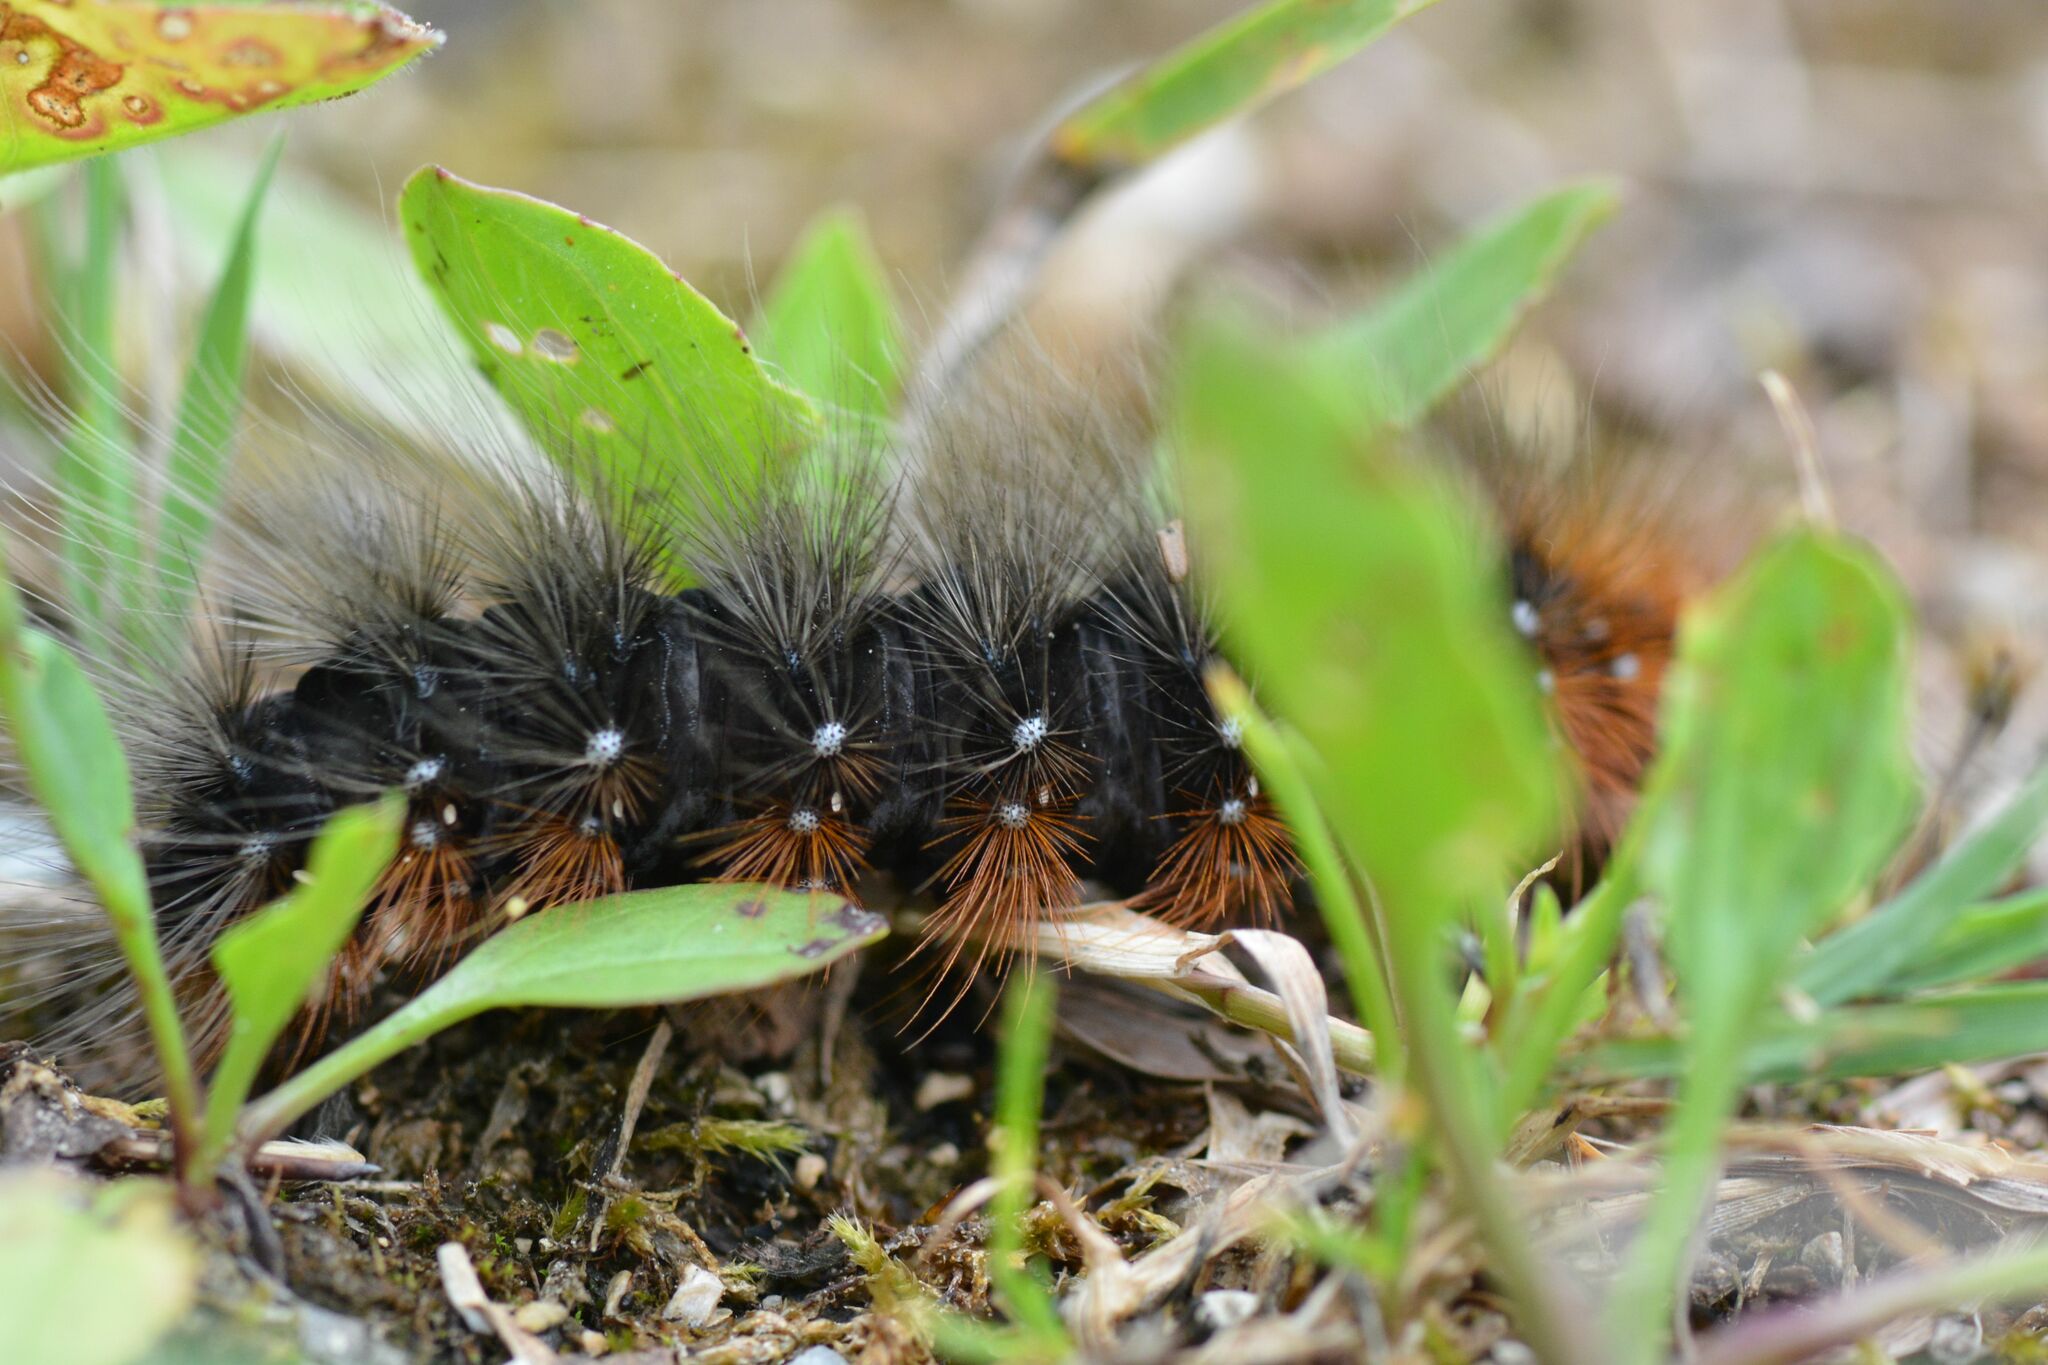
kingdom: Animalia
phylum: Arthropoda
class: Insecta
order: Lepidoptera
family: Erebidae
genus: Arctia
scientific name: Arctia caja
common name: Garden tiger
